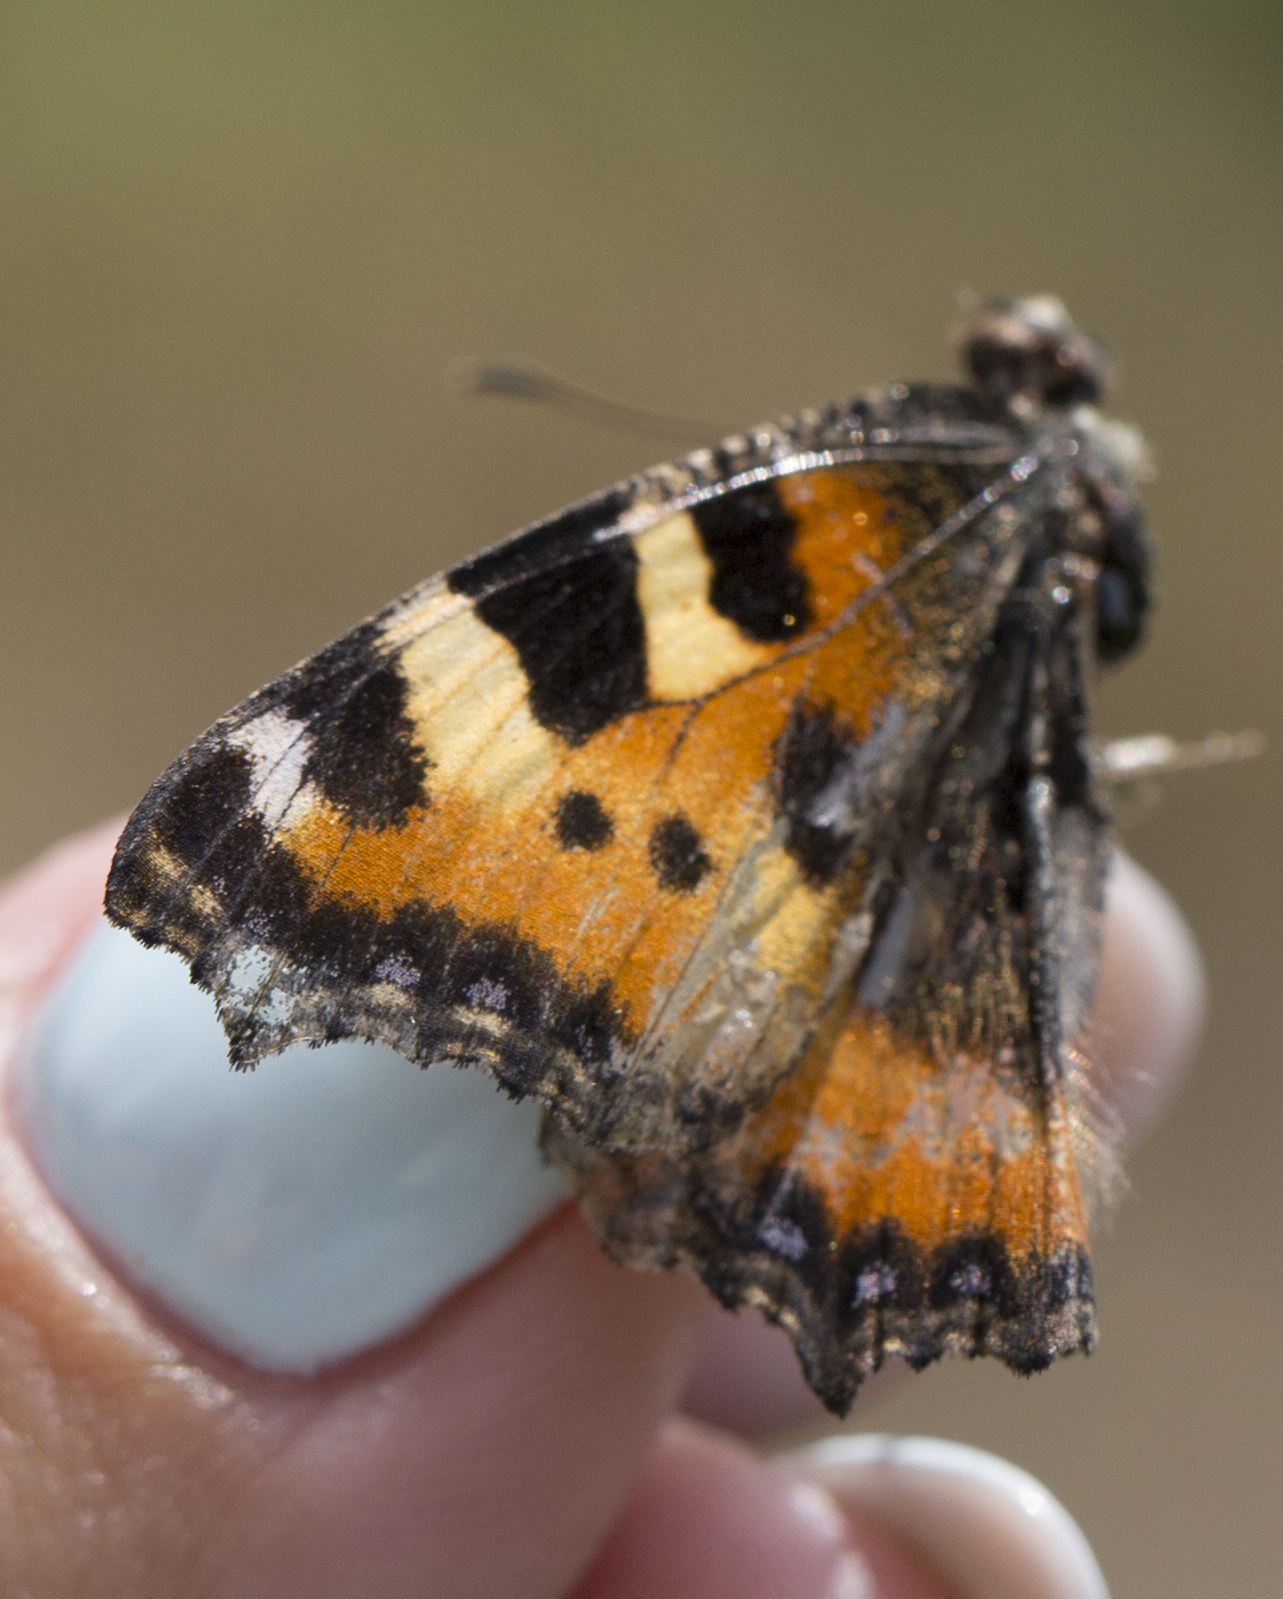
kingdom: Animalia
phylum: Arthropoda
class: Insecta
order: Lepidoptera
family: Nymphalidae
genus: Aglais
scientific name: Aglais urticae
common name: Small tortoiseshell
